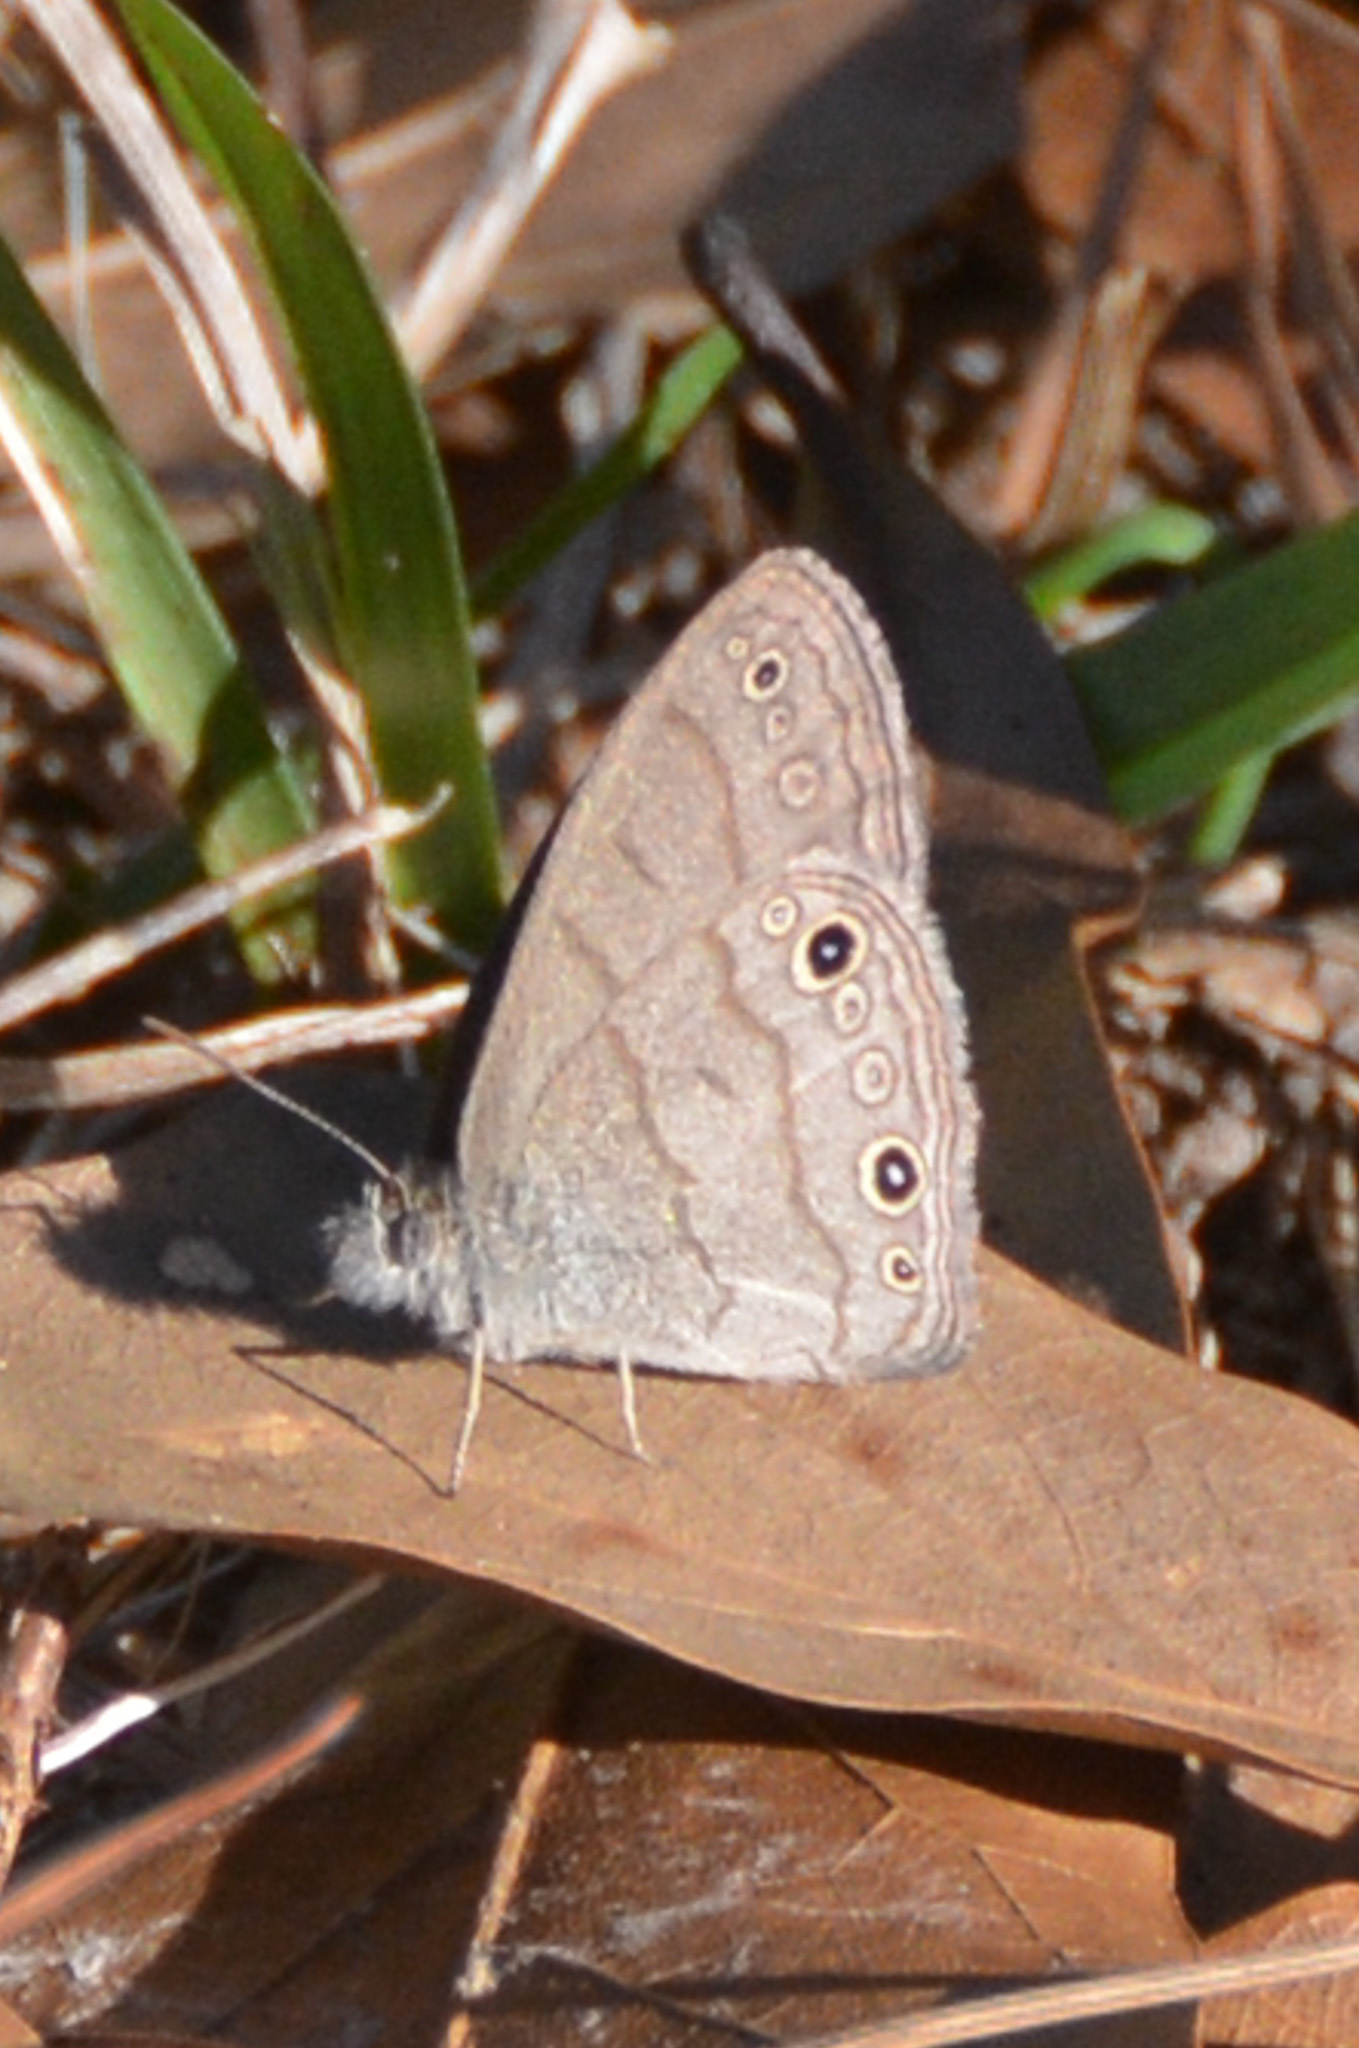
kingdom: Animalia
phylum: Arthropoda
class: Insecta
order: Lepidoptera
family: Nymphalidae
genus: Hermeuptychia
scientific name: Hermeuptychia hermes
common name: Hermes satyr
